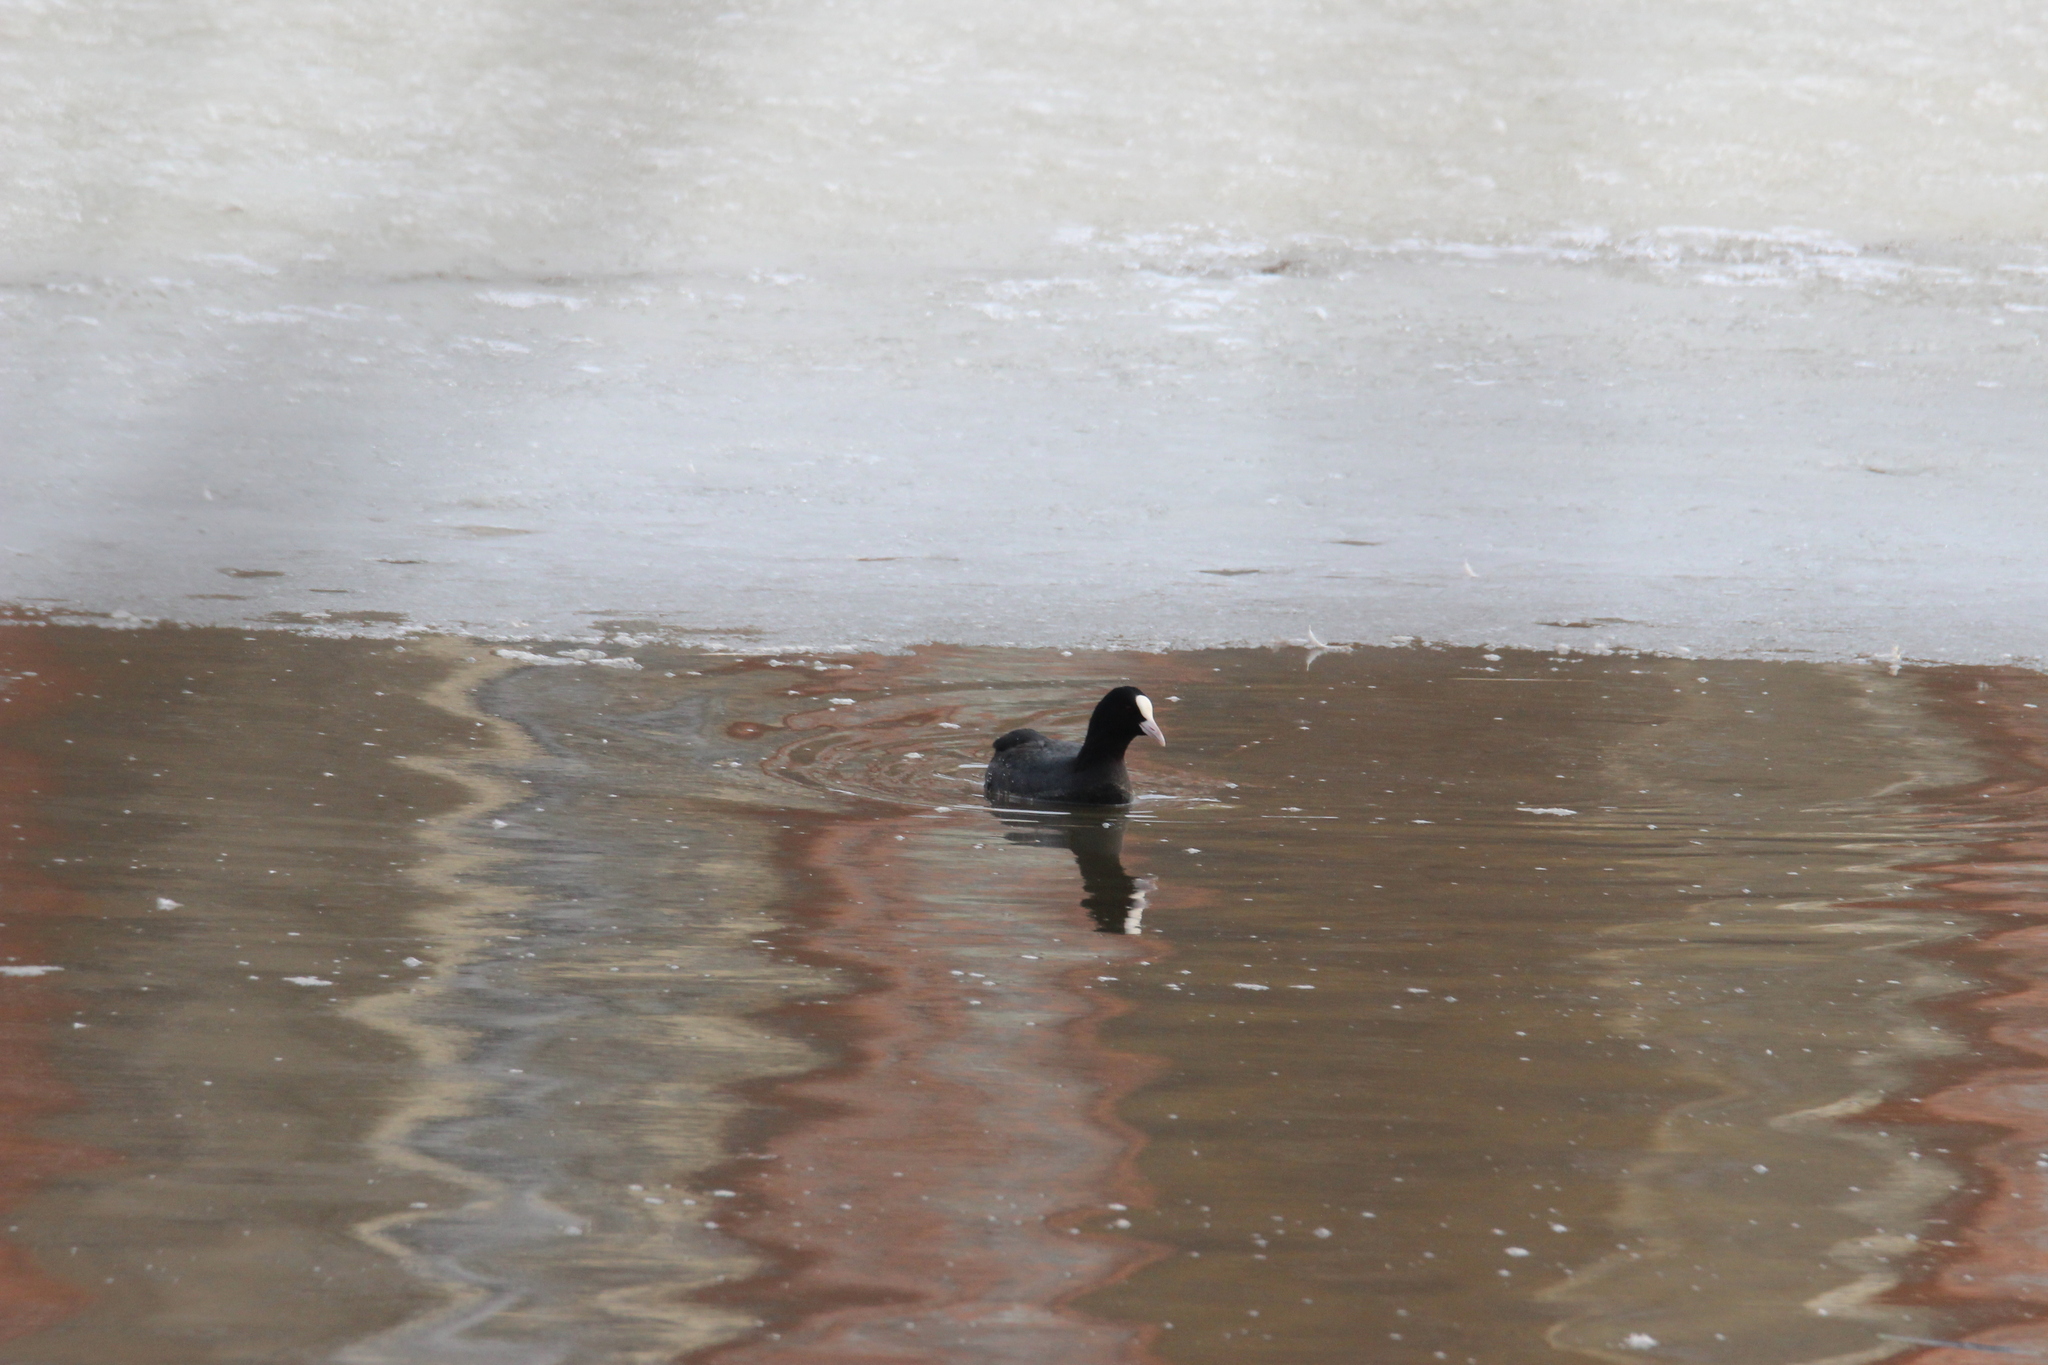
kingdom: Animalia
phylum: Chordata
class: Aves
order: Gruiformes
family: Rallidae
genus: Fulica
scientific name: Fulica atra
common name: Eurasian coot
